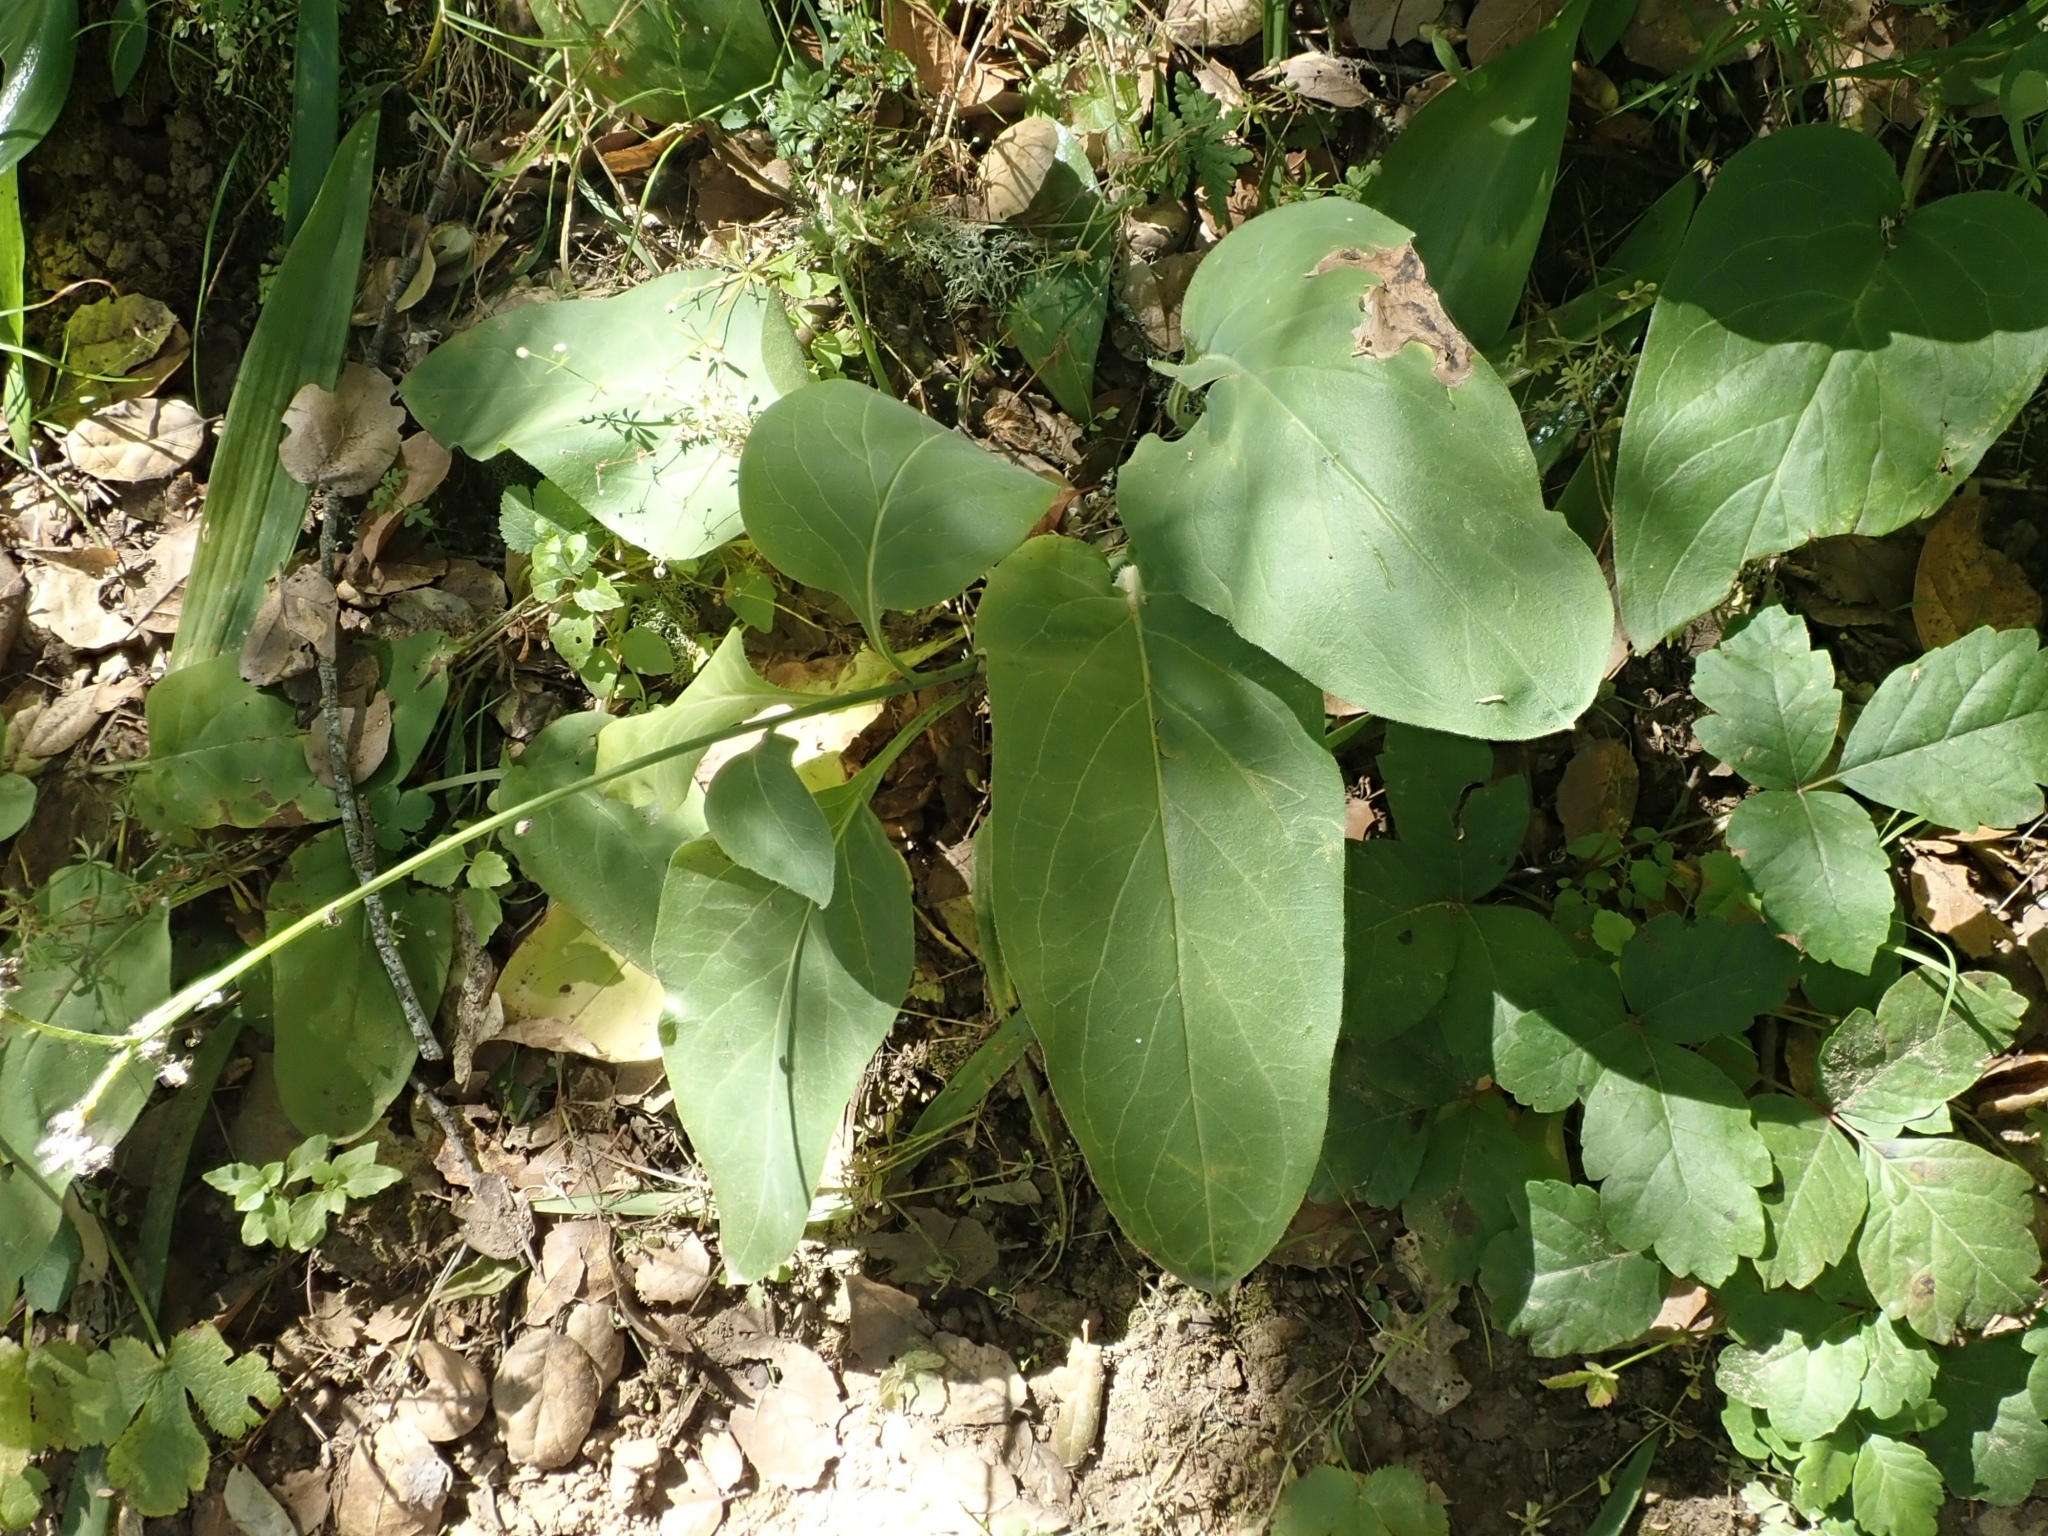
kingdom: Plantae
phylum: Tracheophyta
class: Magnoliopsida
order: Boraginales
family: Boraginaceae
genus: Adelinia
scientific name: Adelinia grande
